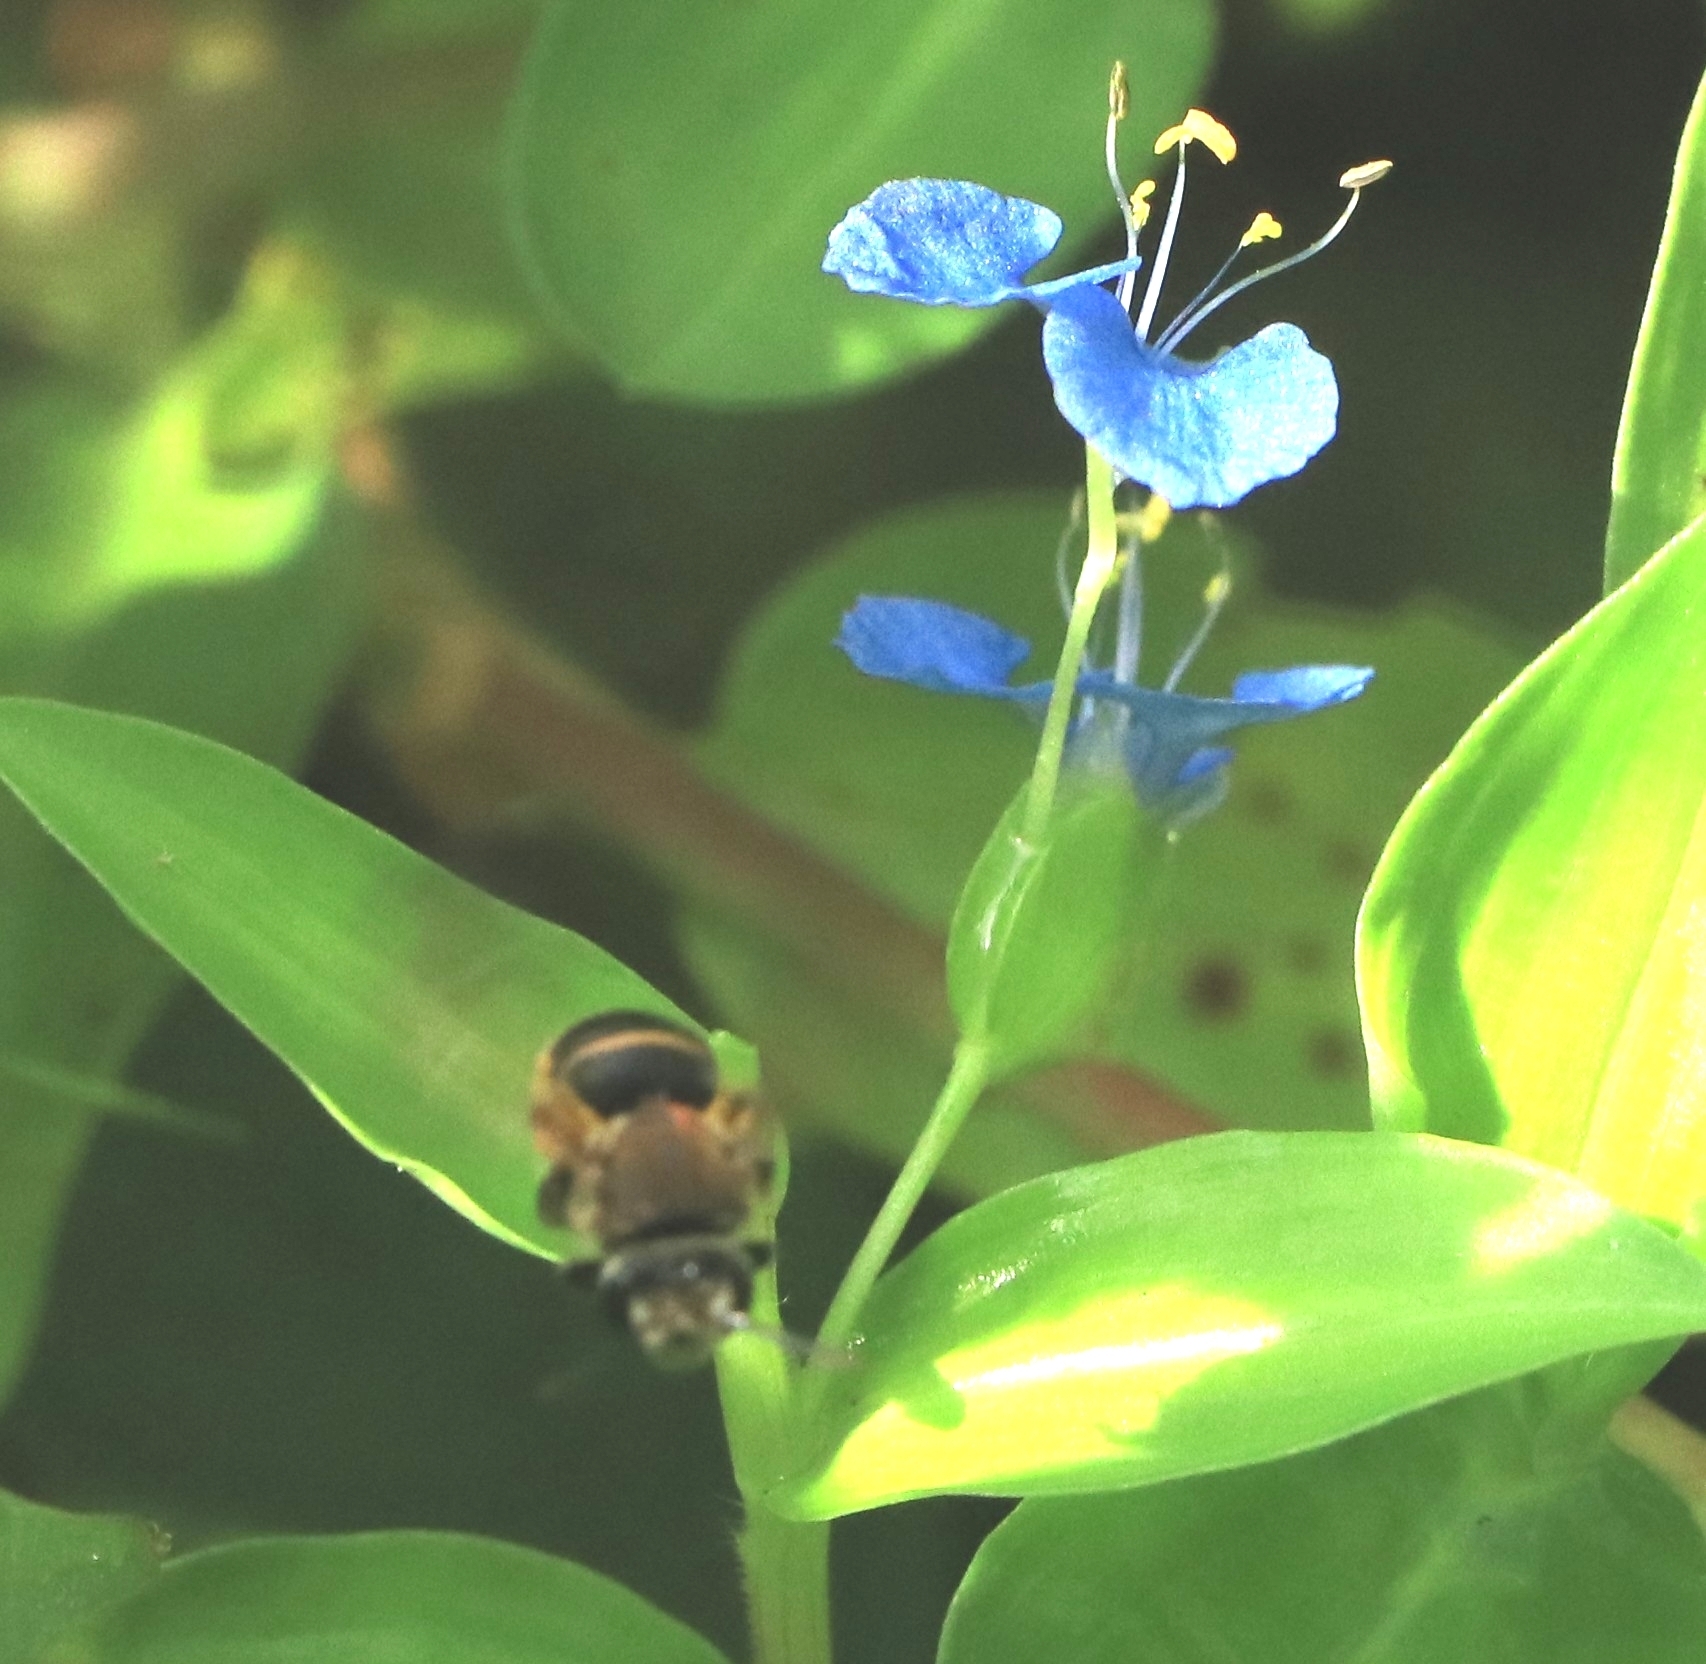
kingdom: Animalia
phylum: Arthropoda
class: Insecta
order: Hymenoptera
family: Halictidae
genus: Nomia
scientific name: Nomia thoracica
